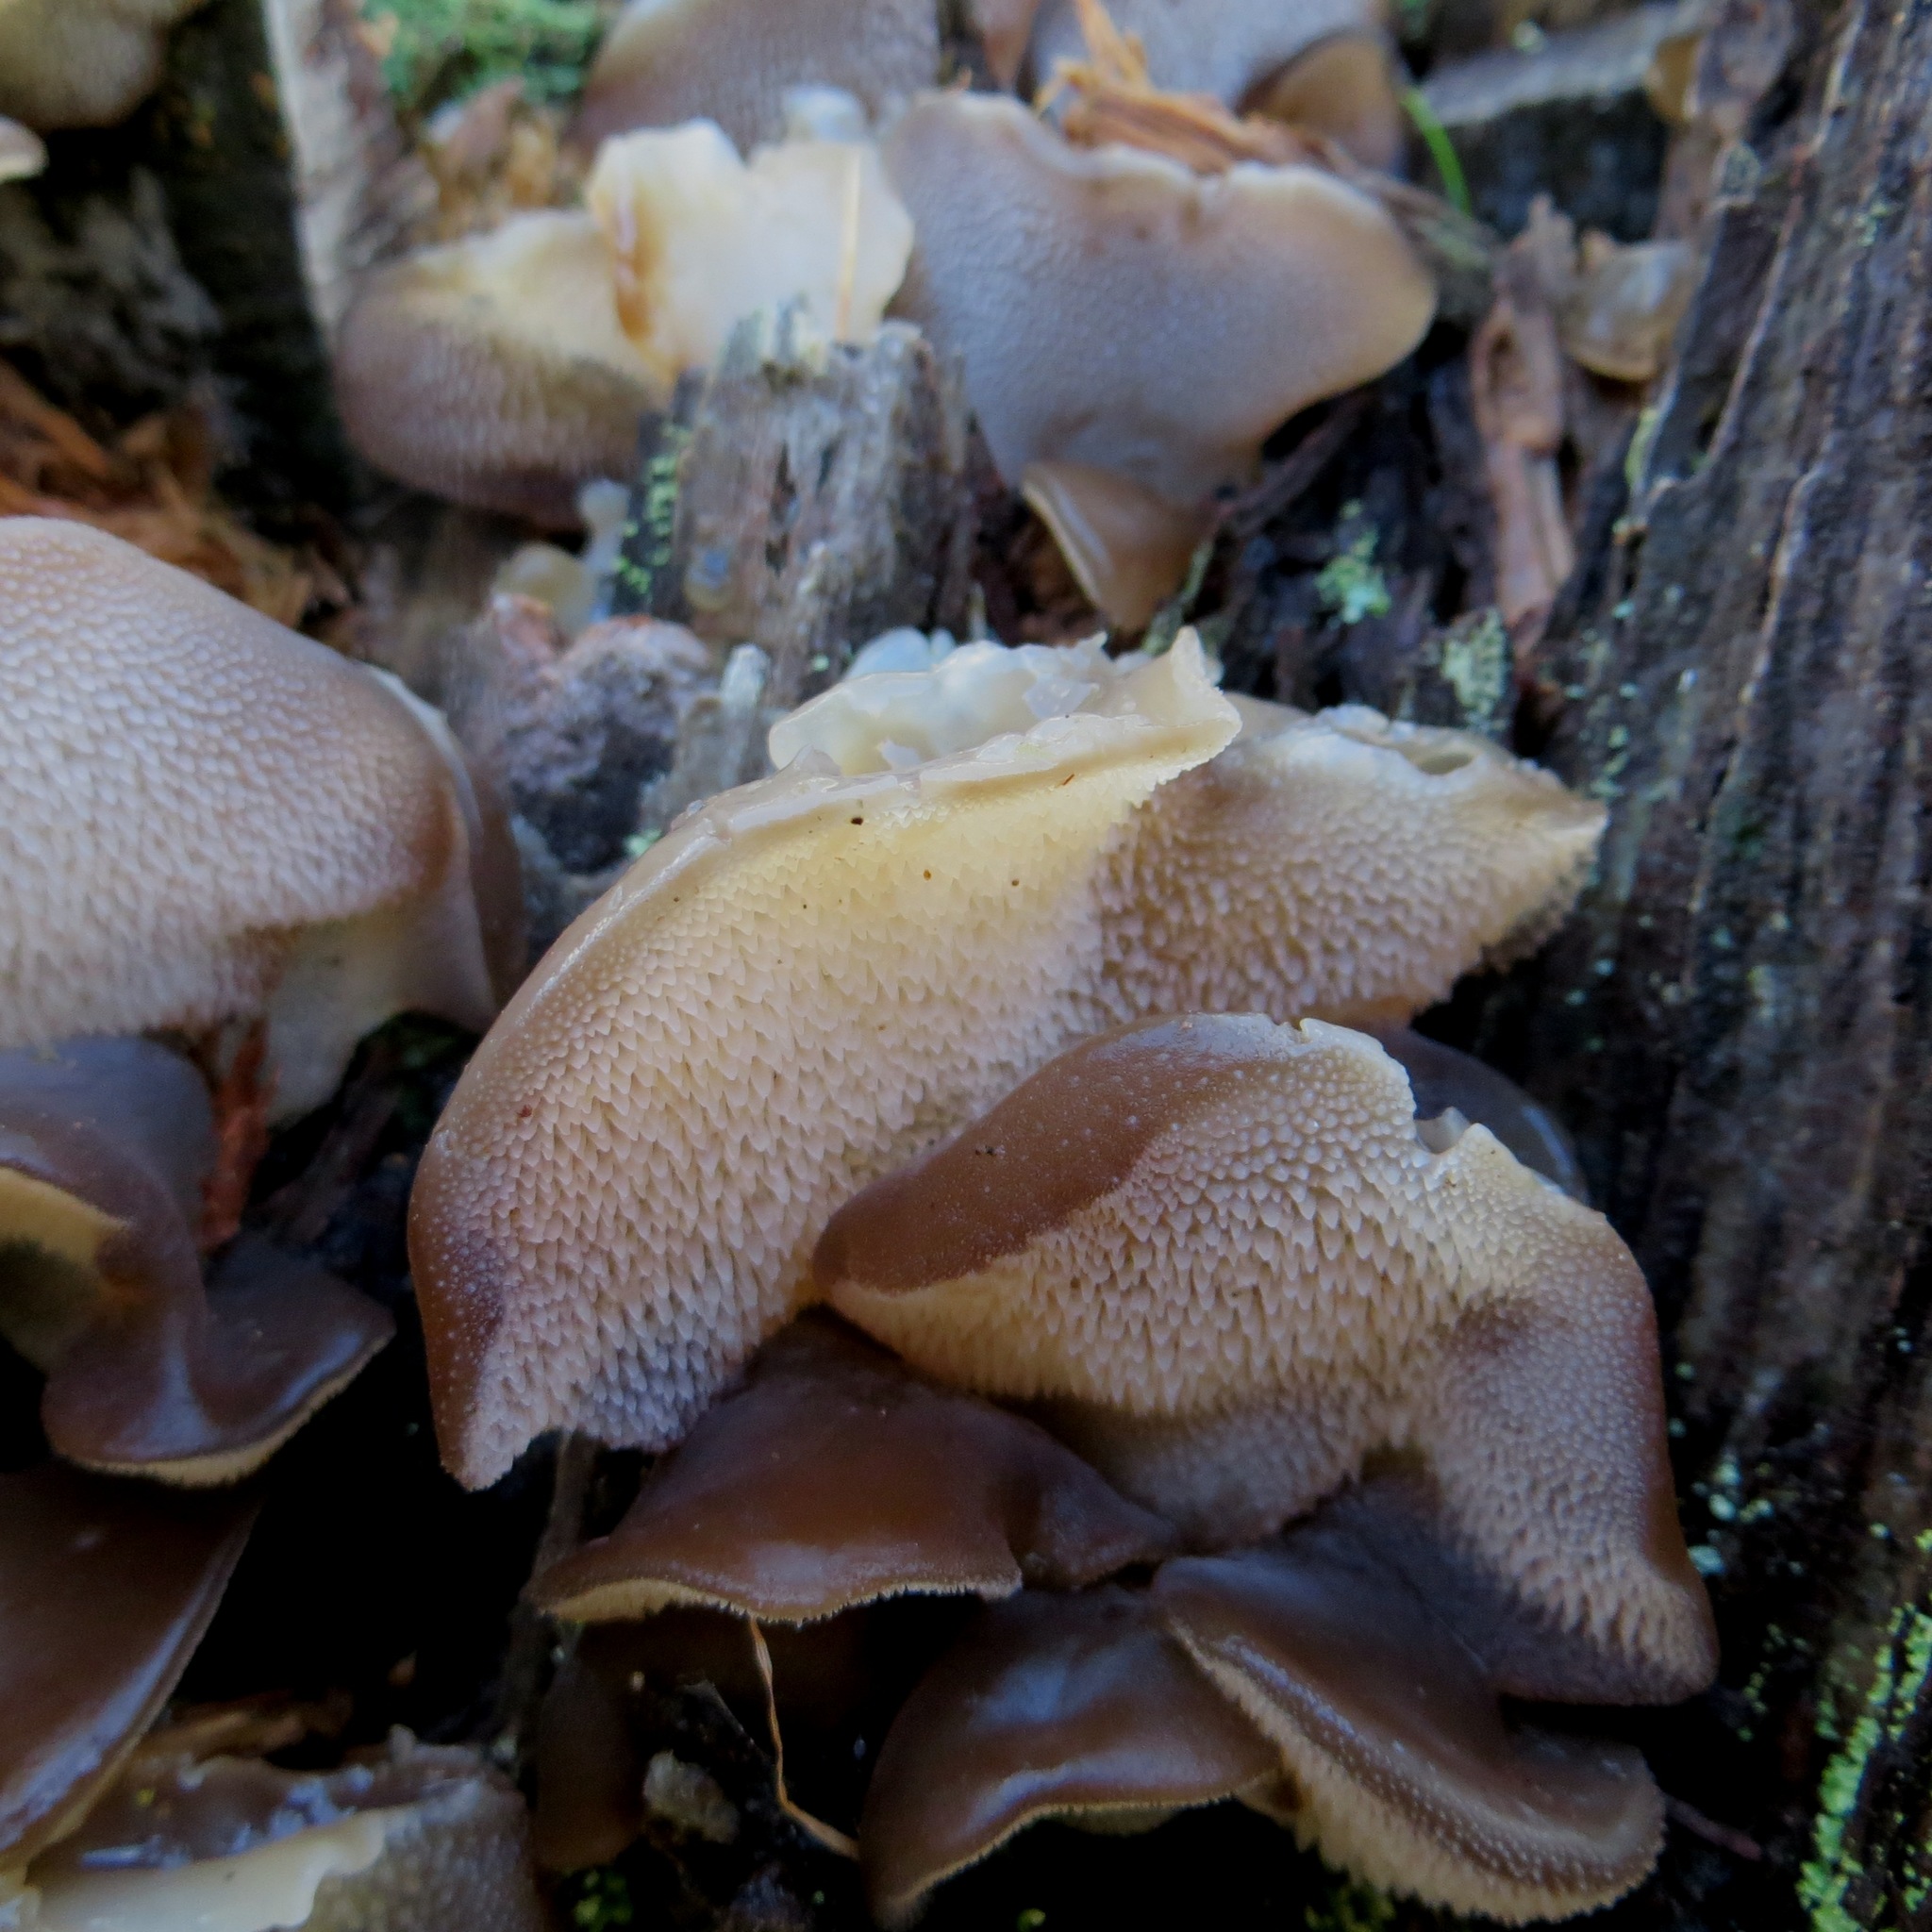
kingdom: Fungi
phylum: Basidiomycota
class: Agaricomycetes
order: Auriculariales
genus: Pseudohydnum
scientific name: Pseudohydnum orbiculare
